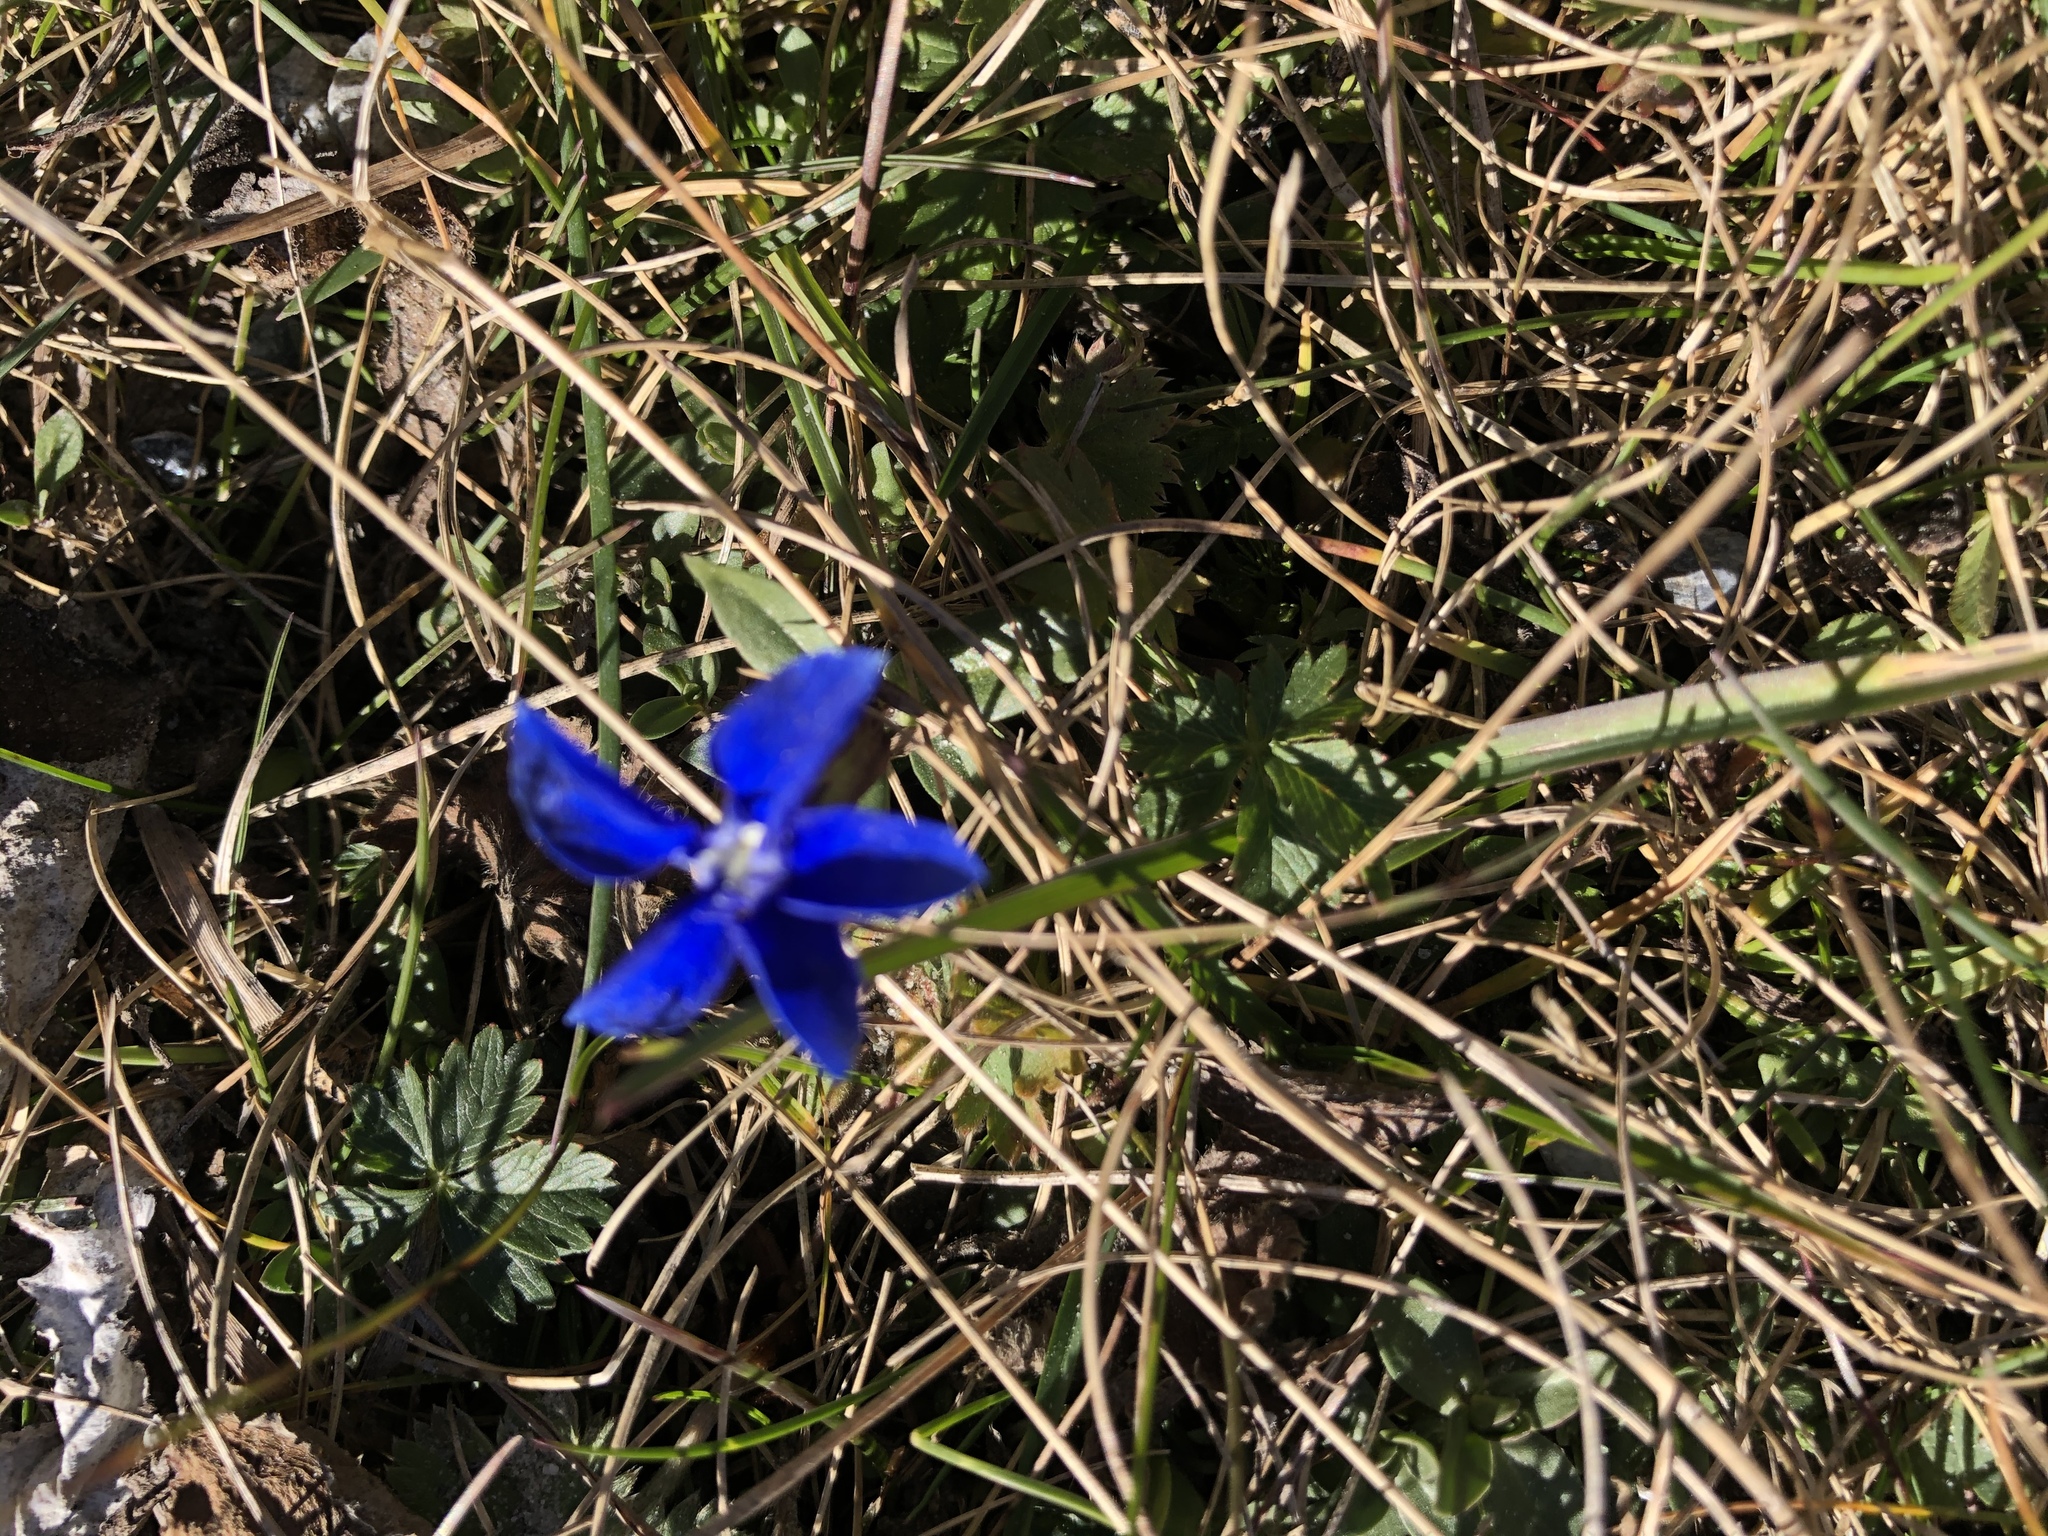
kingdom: Plantae
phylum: Tracheophyta
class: Magnoliopsida
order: Gentianales
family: Gentianaceae
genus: Gentiana
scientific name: Gentiana verna
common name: Spring gentian
